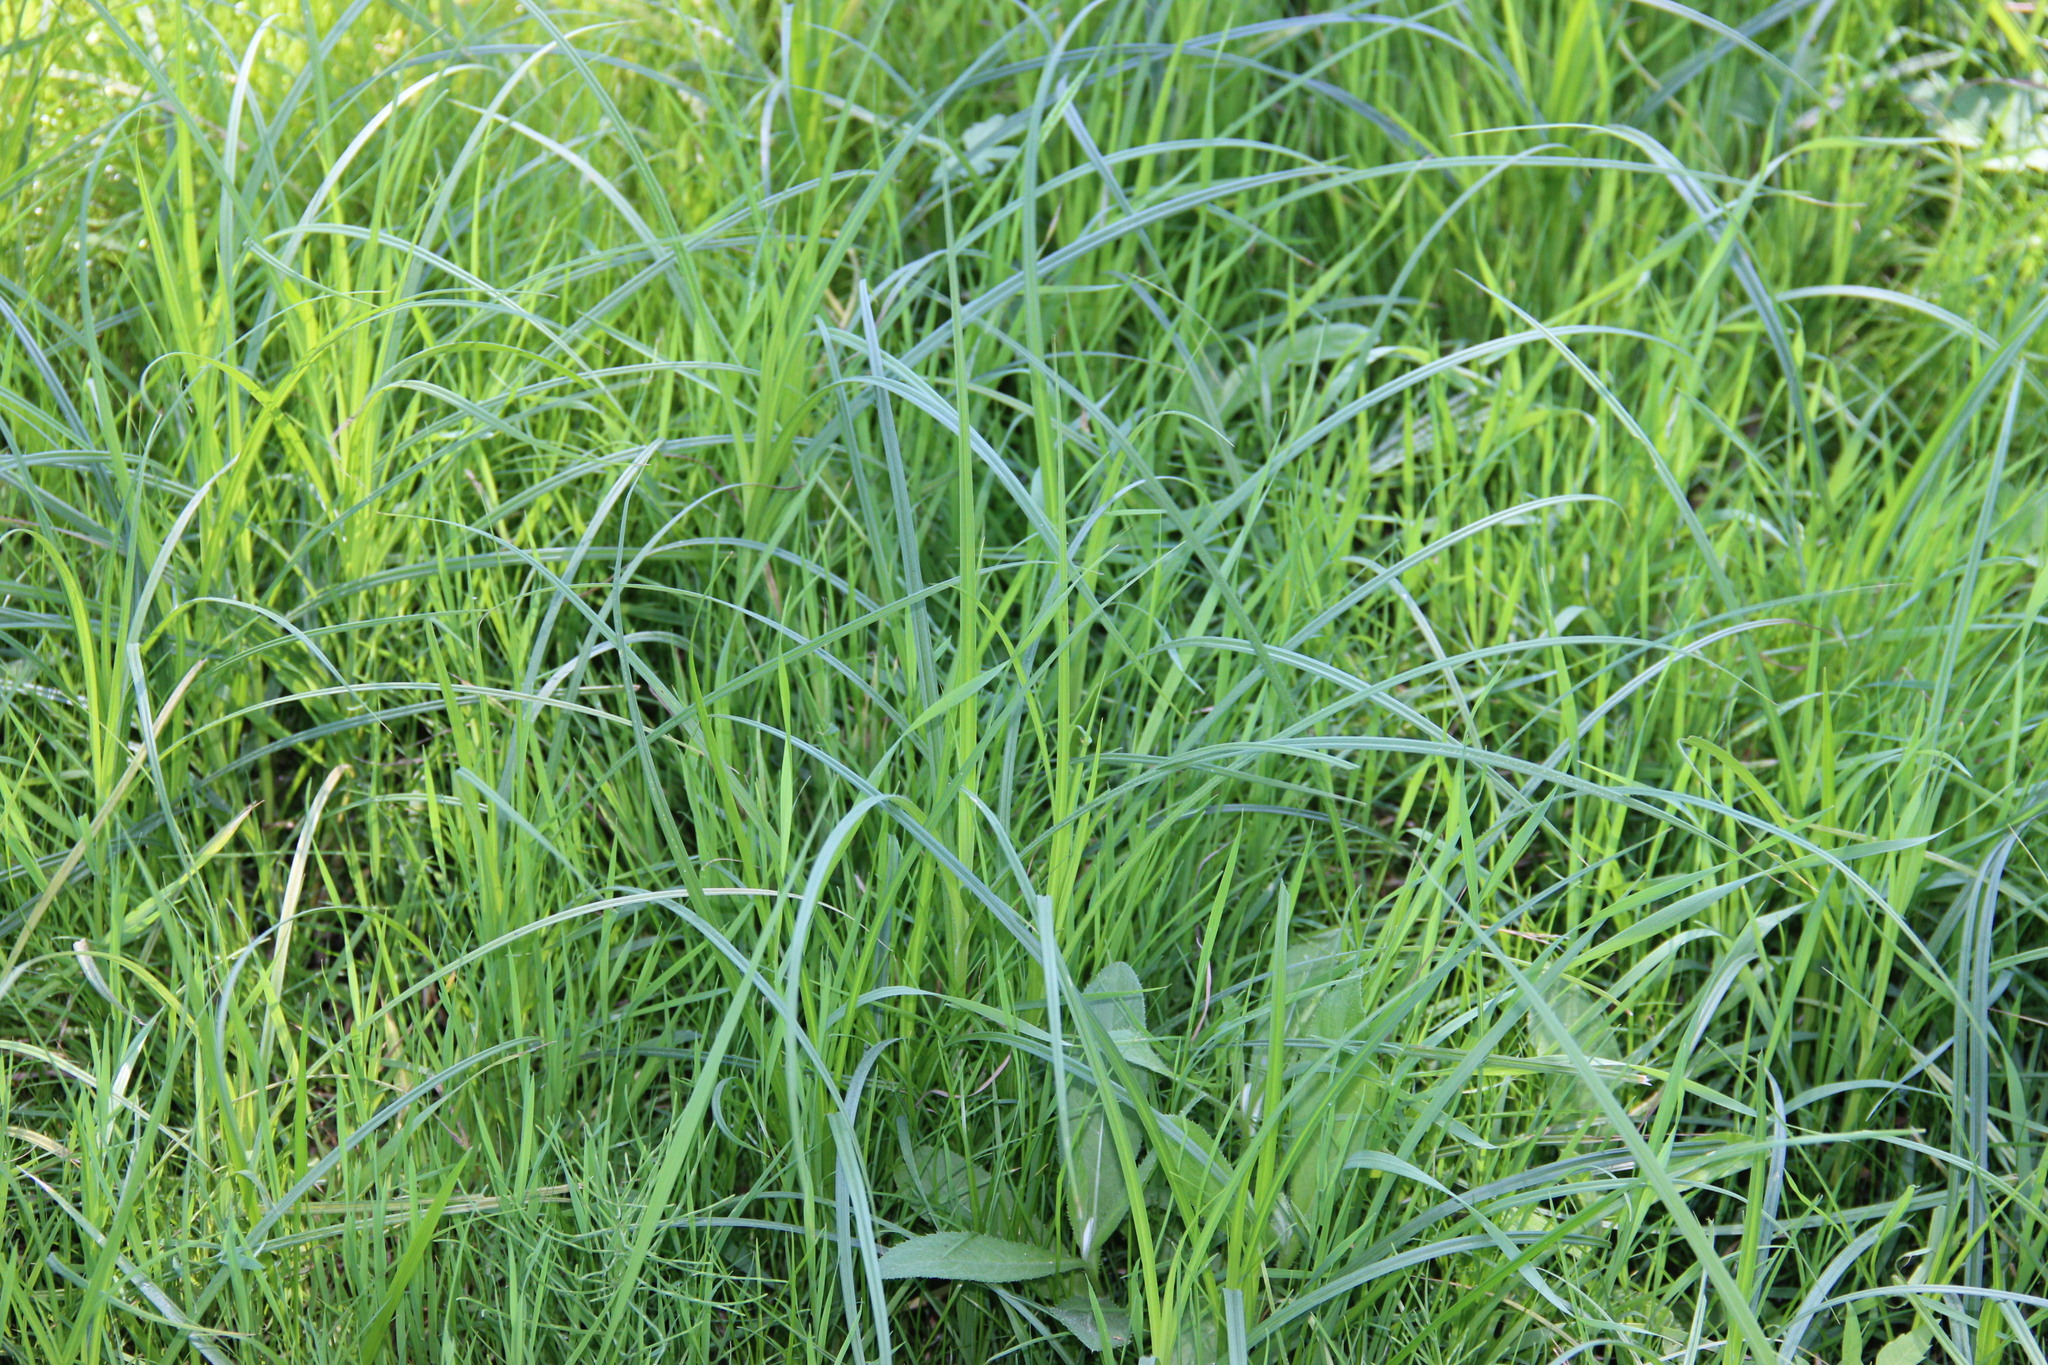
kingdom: Plantae
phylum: Tracheophyta
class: Liliopsida
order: Poales
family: Poaceae
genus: Lolium
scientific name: Lolium giganteum
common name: Giant fescue
